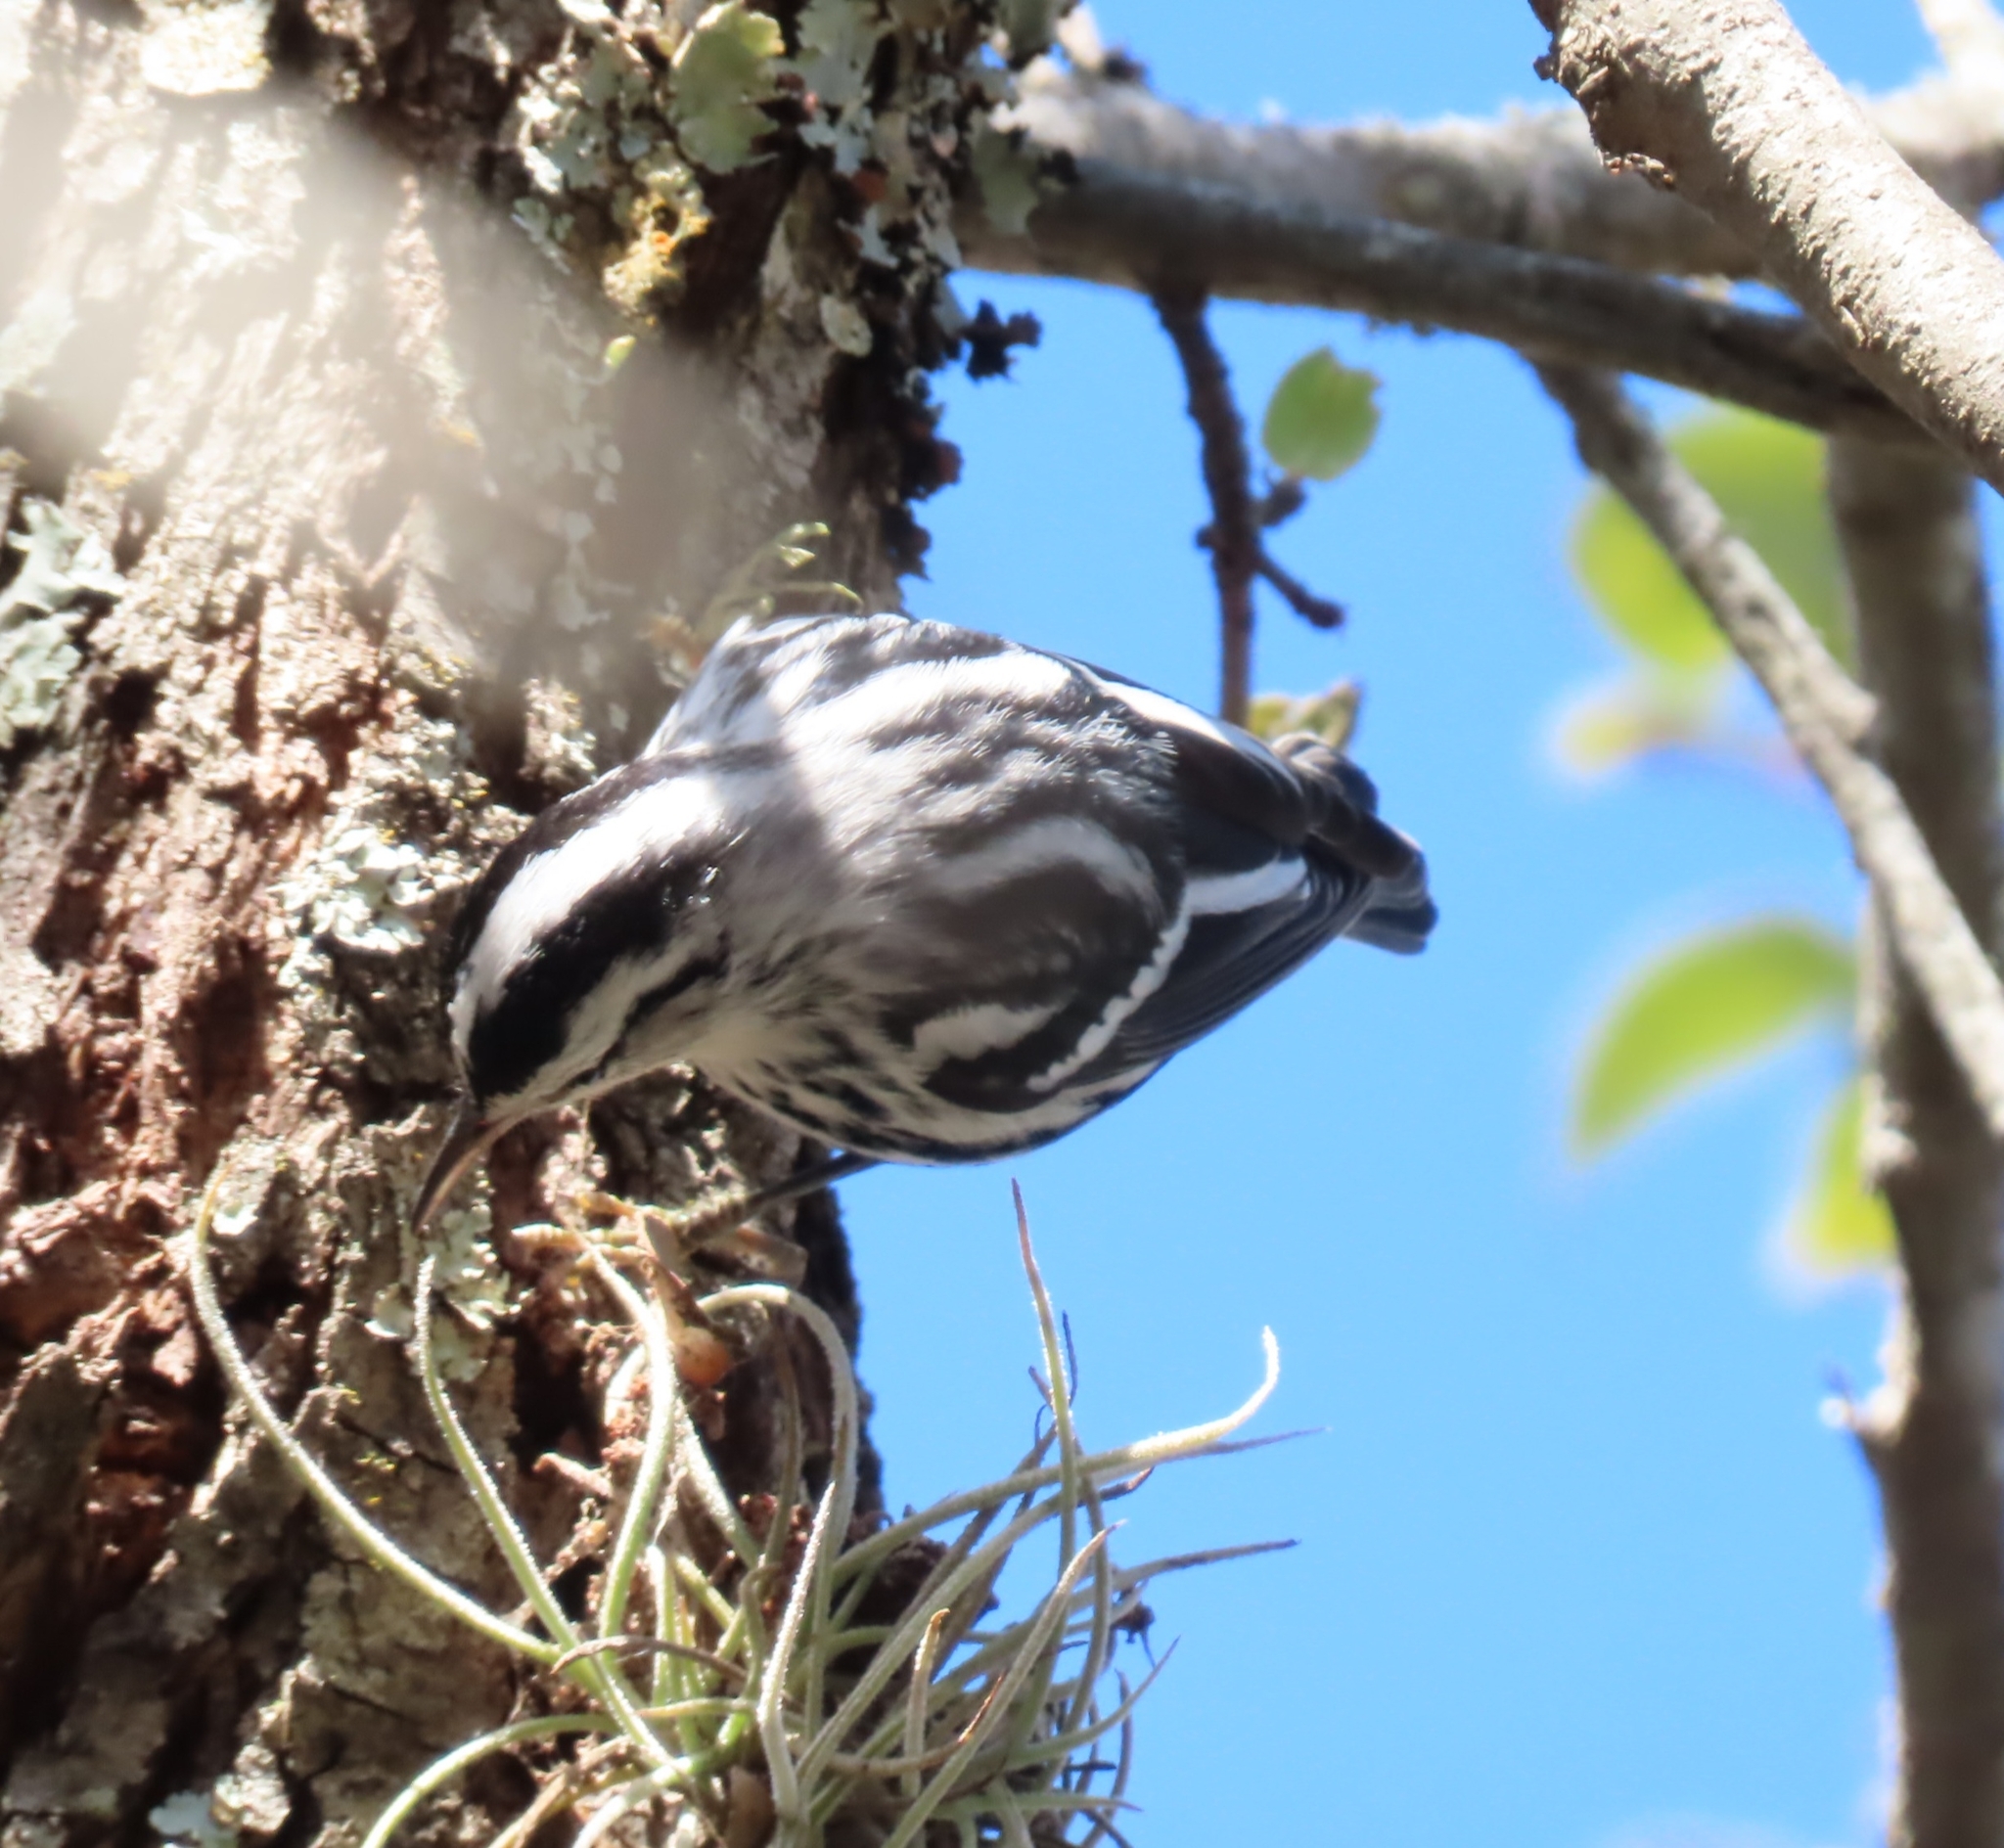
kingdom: Animalia
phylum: Chordata
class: Aves
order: Passeriformes
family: Parulidae
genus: Mniotilta
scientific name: Mniotilta varia
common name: Black-and-white warbler
